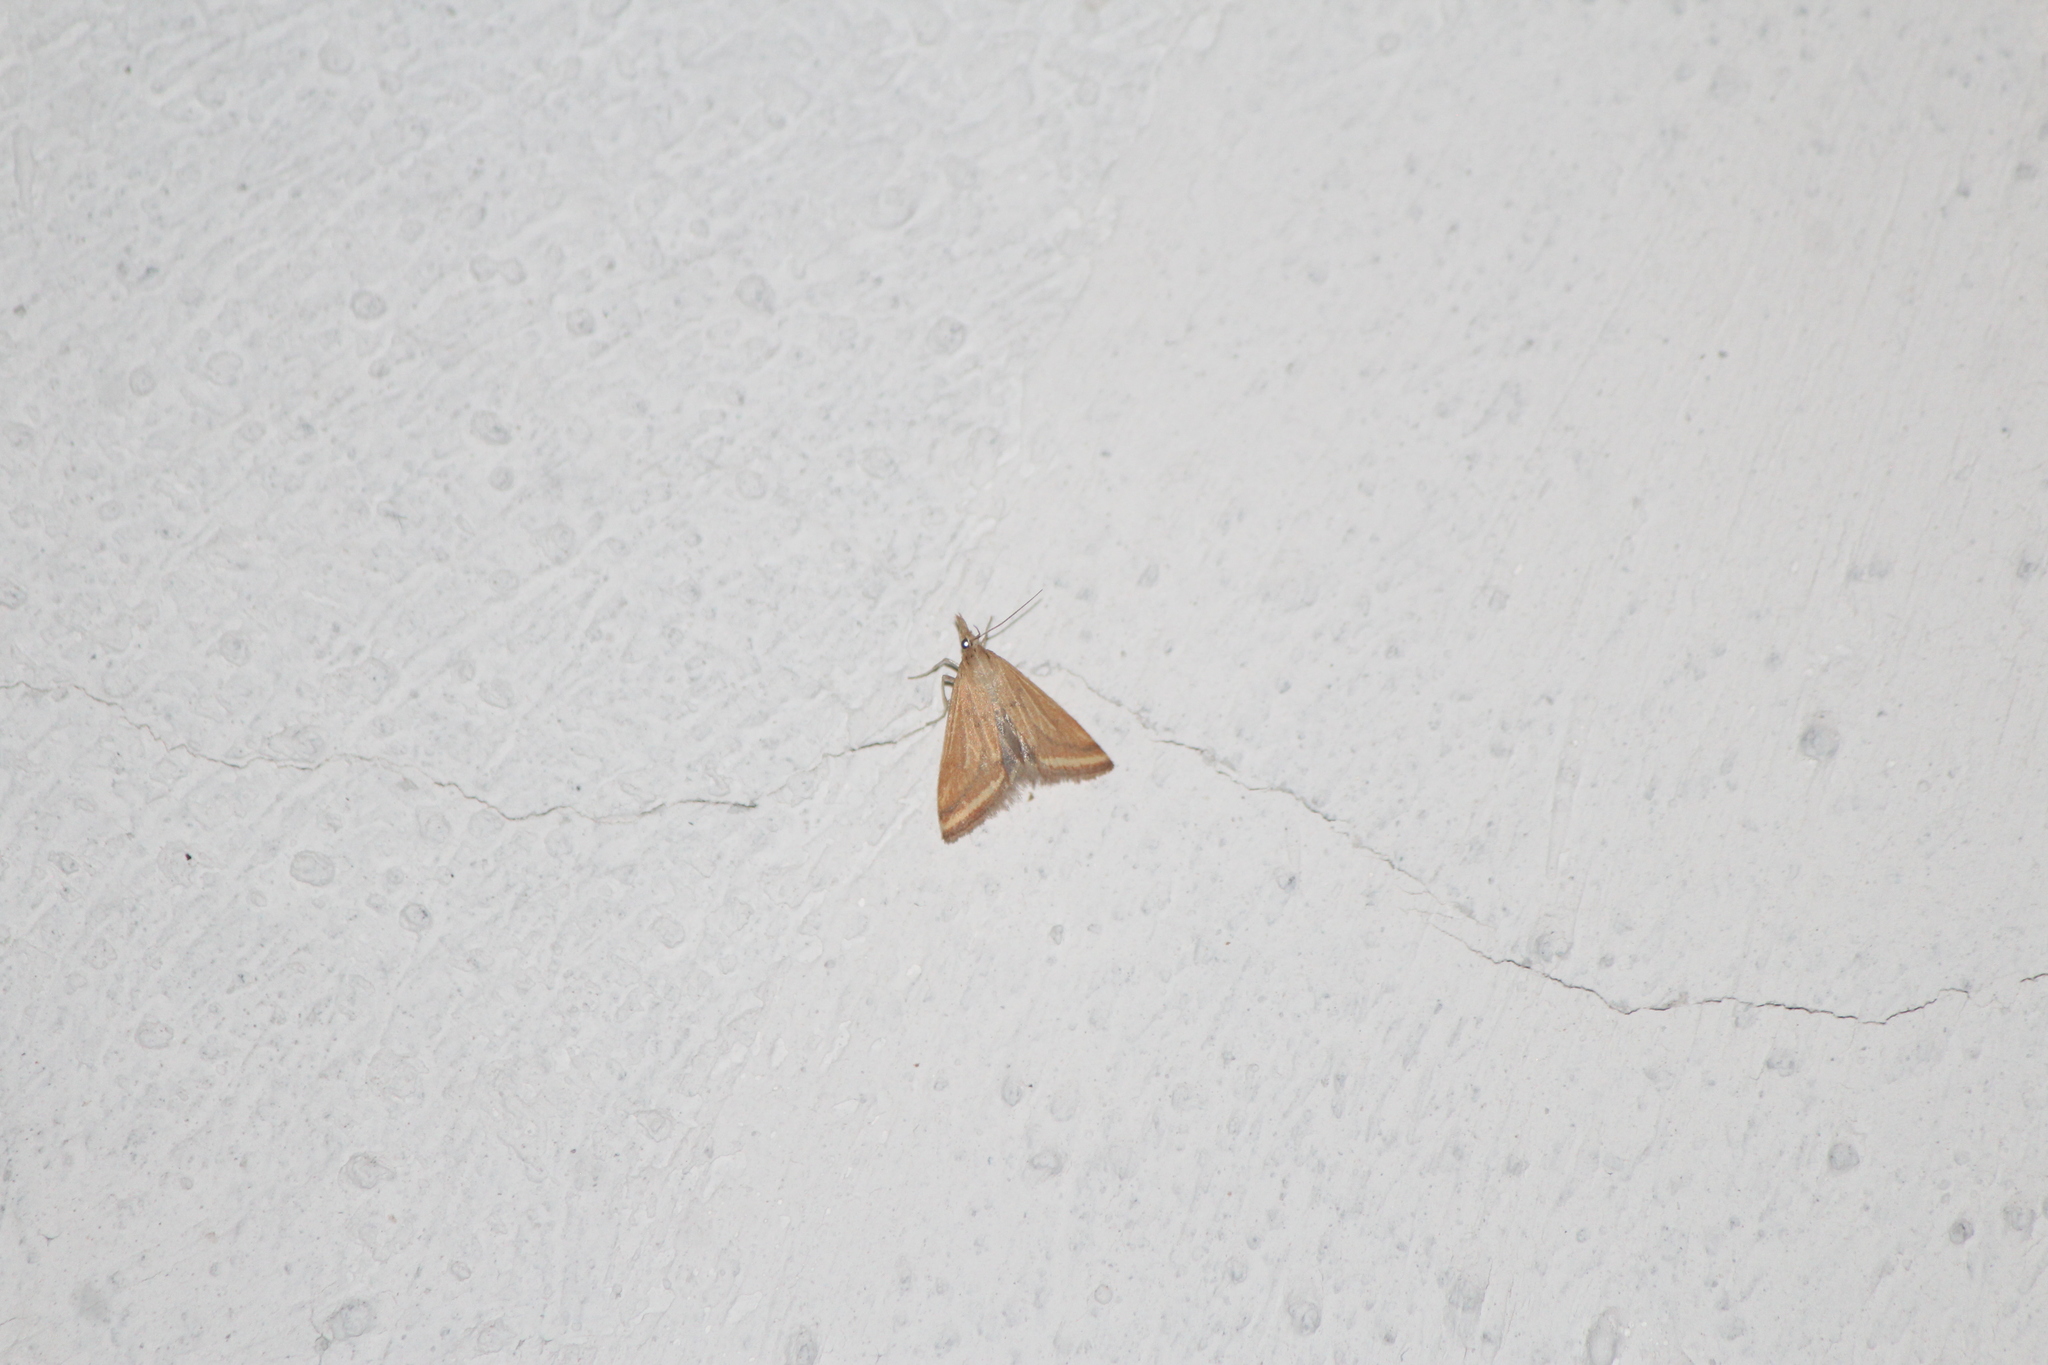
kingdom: Animalia
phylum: Arthropoda
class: Insecta
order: Lepidoptera
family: Crambidae
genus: Microtheoris
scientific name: Microtheoris ophionalis
